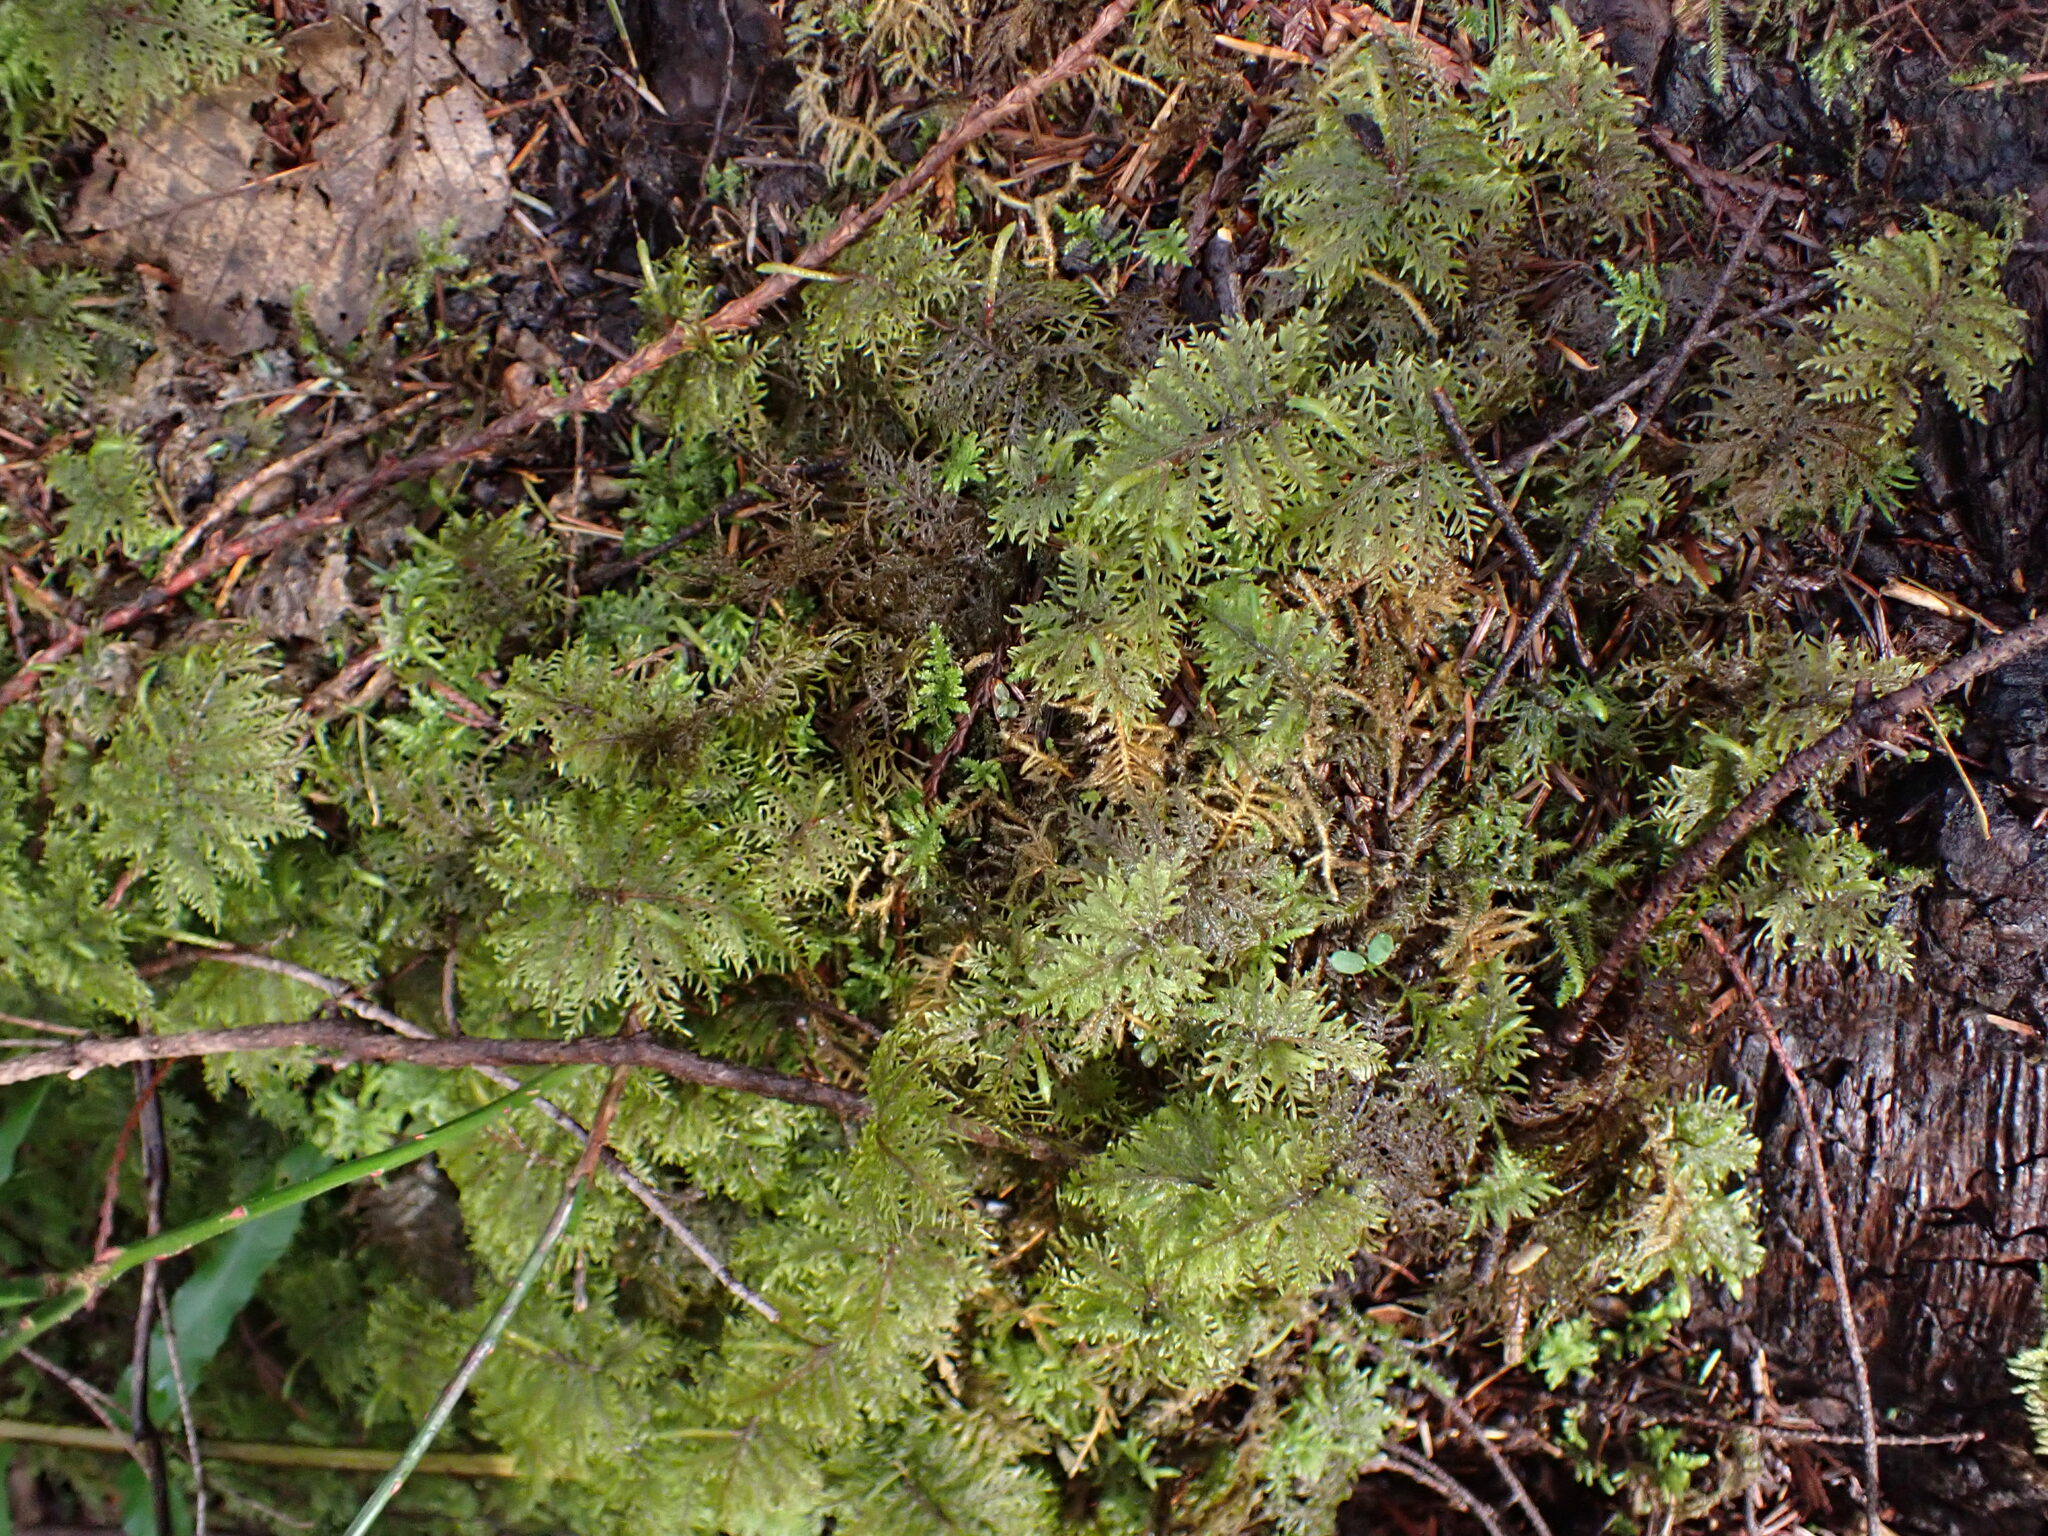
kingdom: Plantae
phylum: Bryophyta
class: Bryopsida
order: Hypnales
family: Hylocomiaceae
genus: Hylocomium
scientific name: Hylocomium splendens
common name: Stairstep moss
